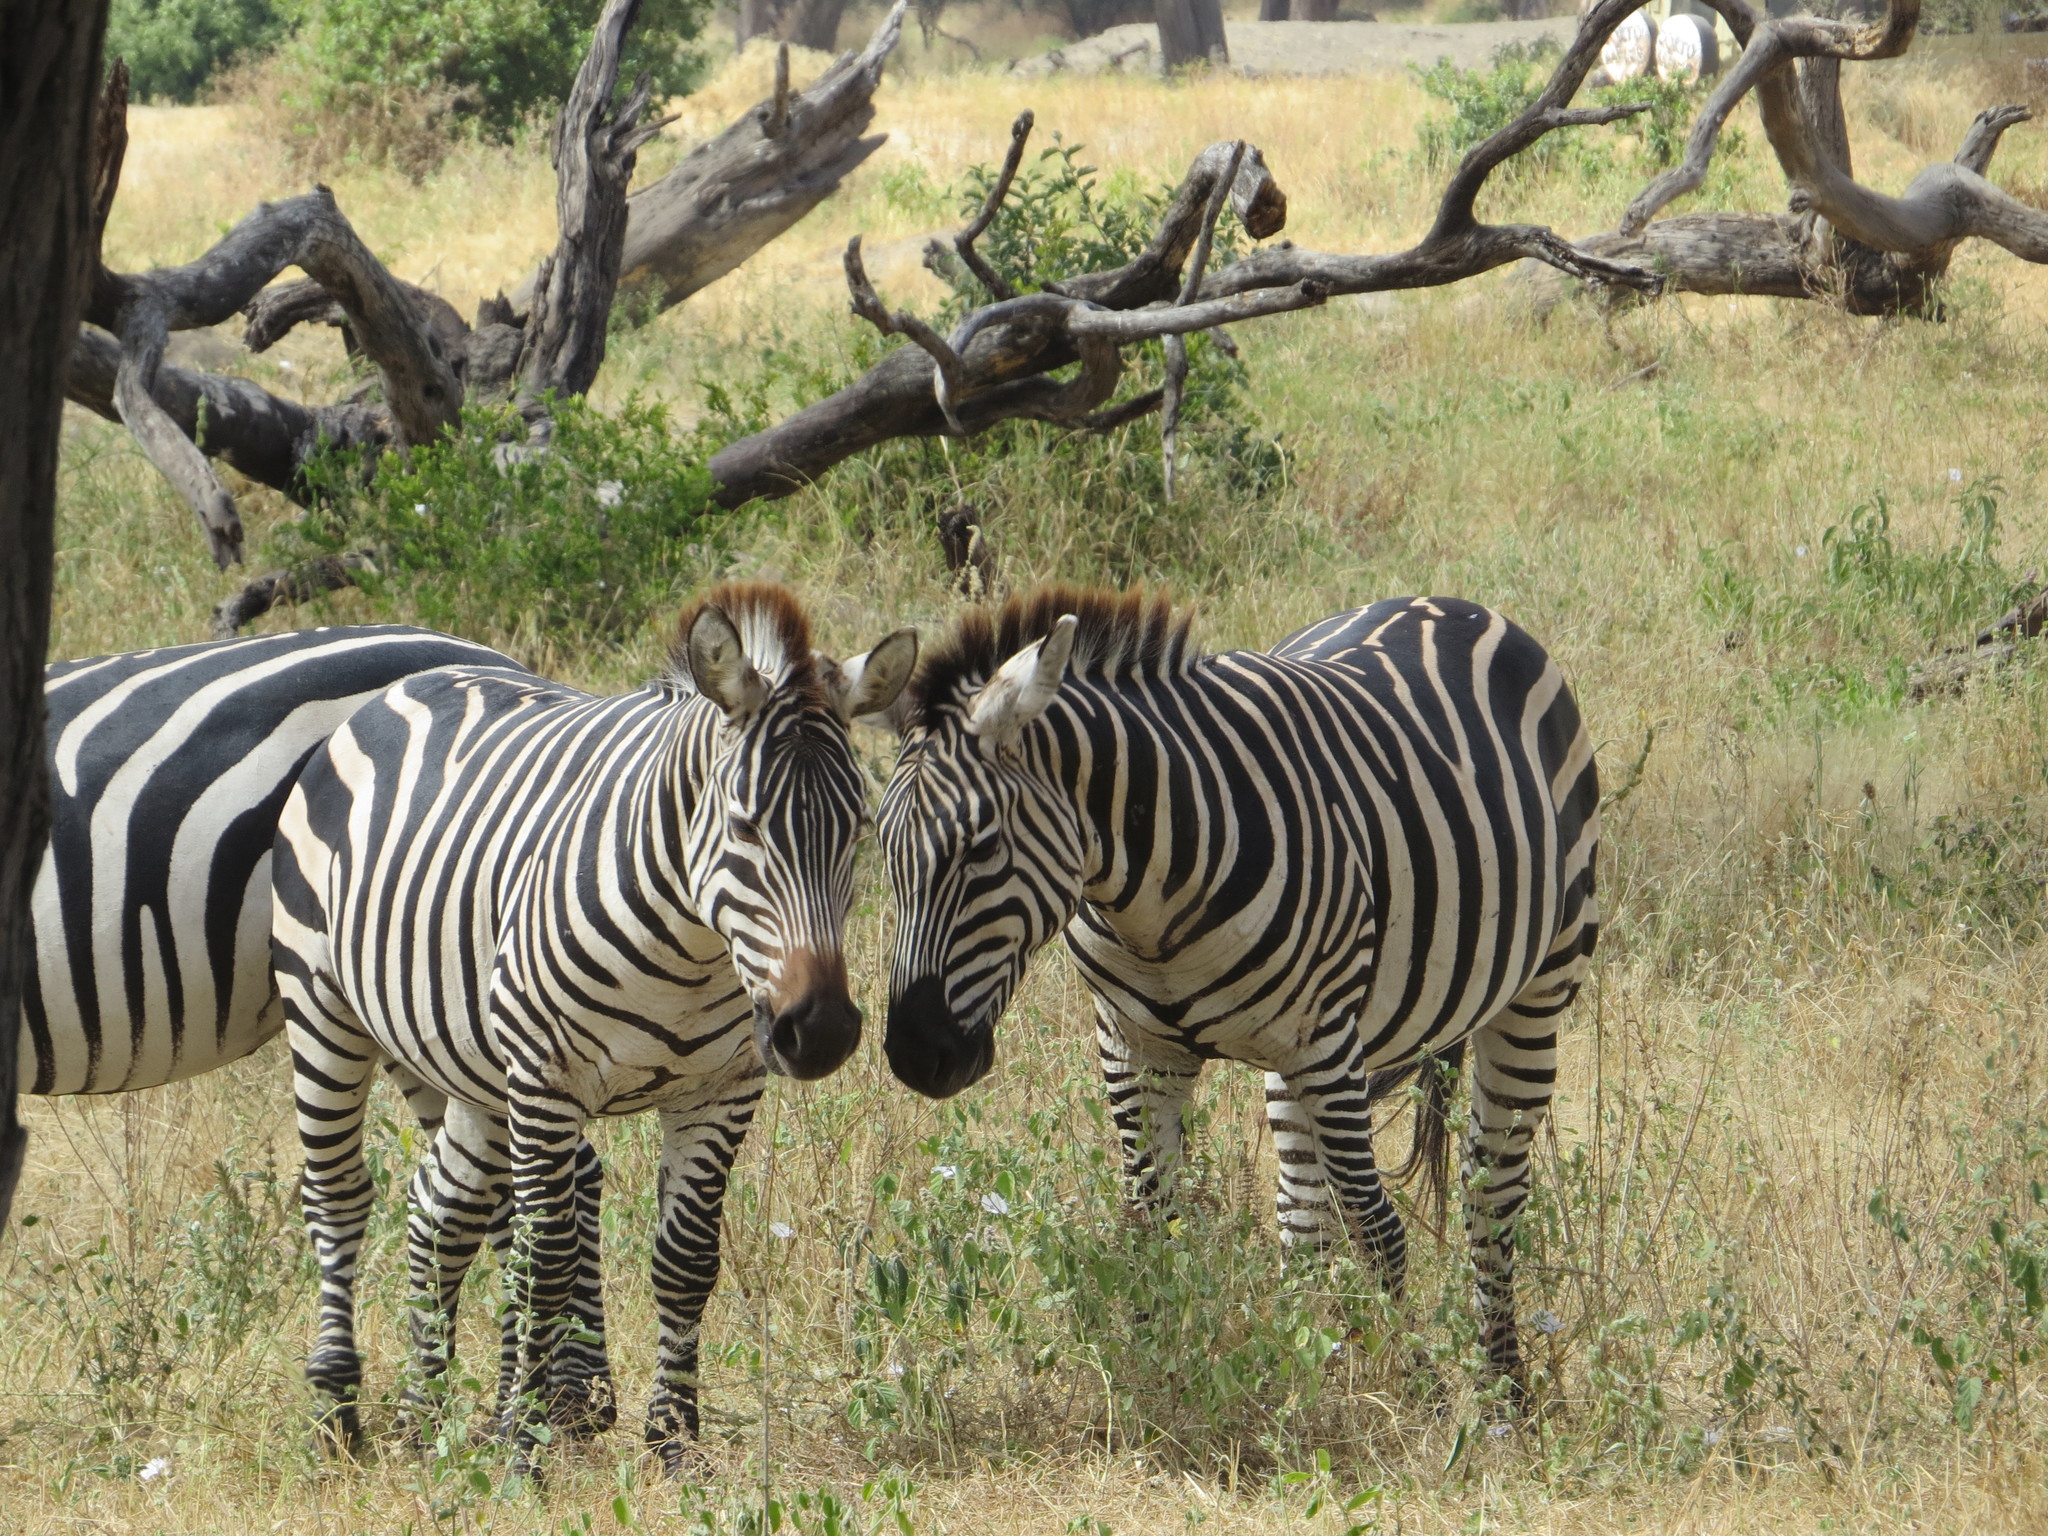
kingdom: Animalia
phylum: Chordata
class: Mammalia
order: Perissodactyla
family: Equidae
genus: Equus
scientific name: Equus quagga
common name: Plains zebra
